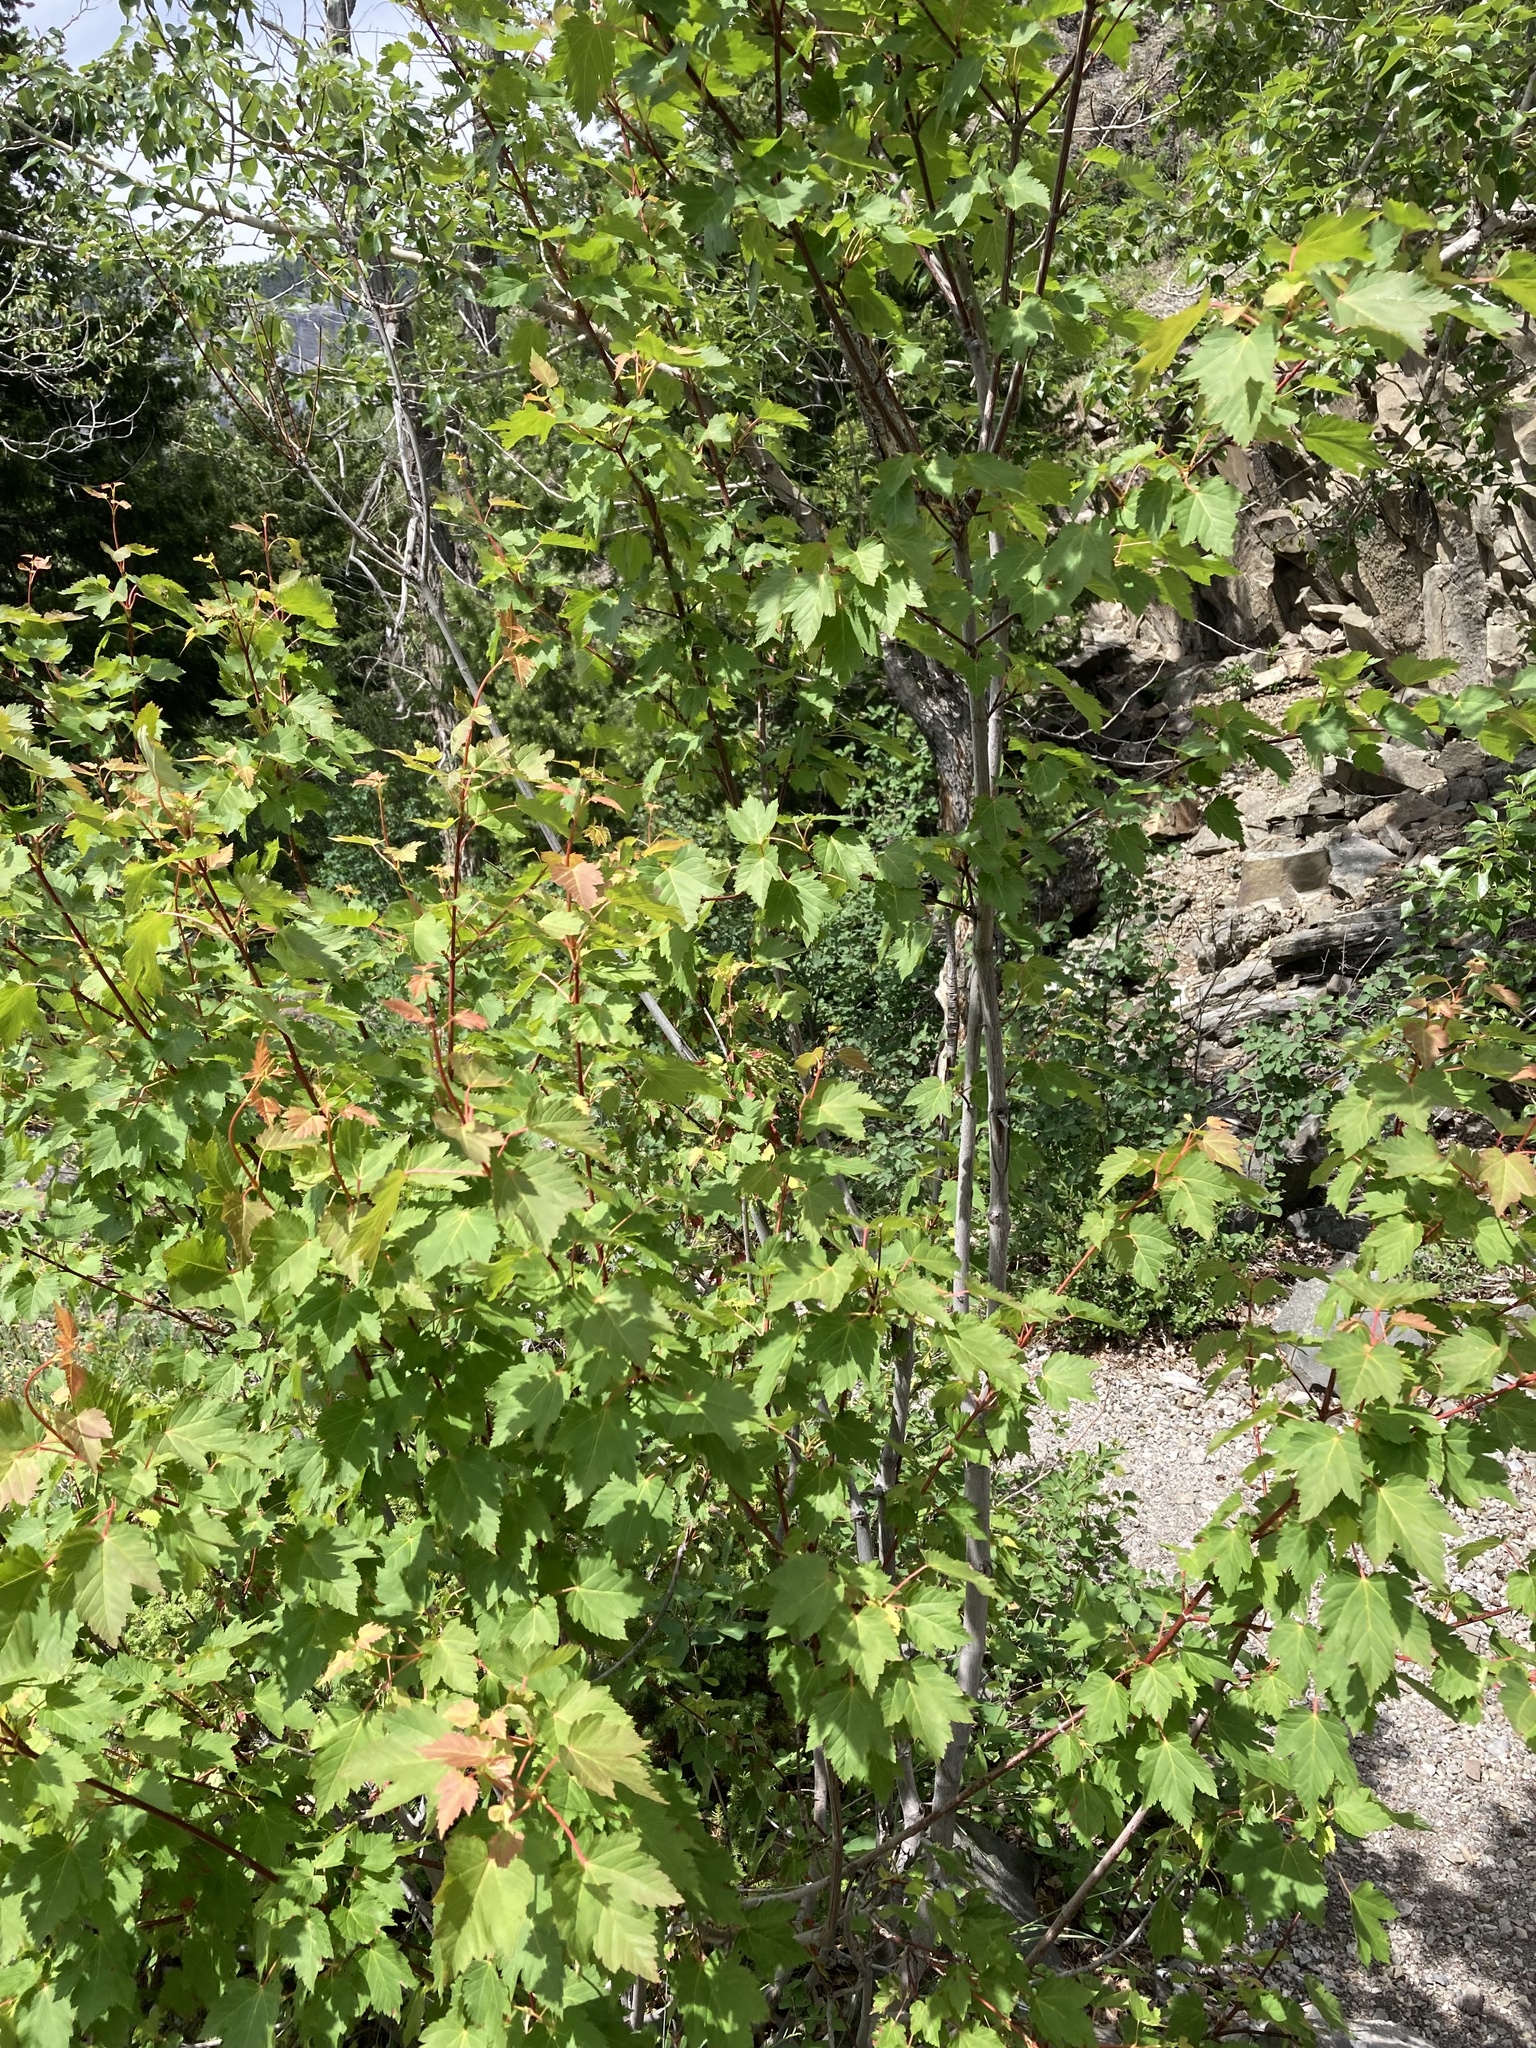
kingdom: Plantae
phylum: Tracheophyta
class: Magnoliopsida
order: Sapindales
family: Sapindaceae
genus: Acer
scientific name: Acer glabrum
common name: Rocky mountain maple
